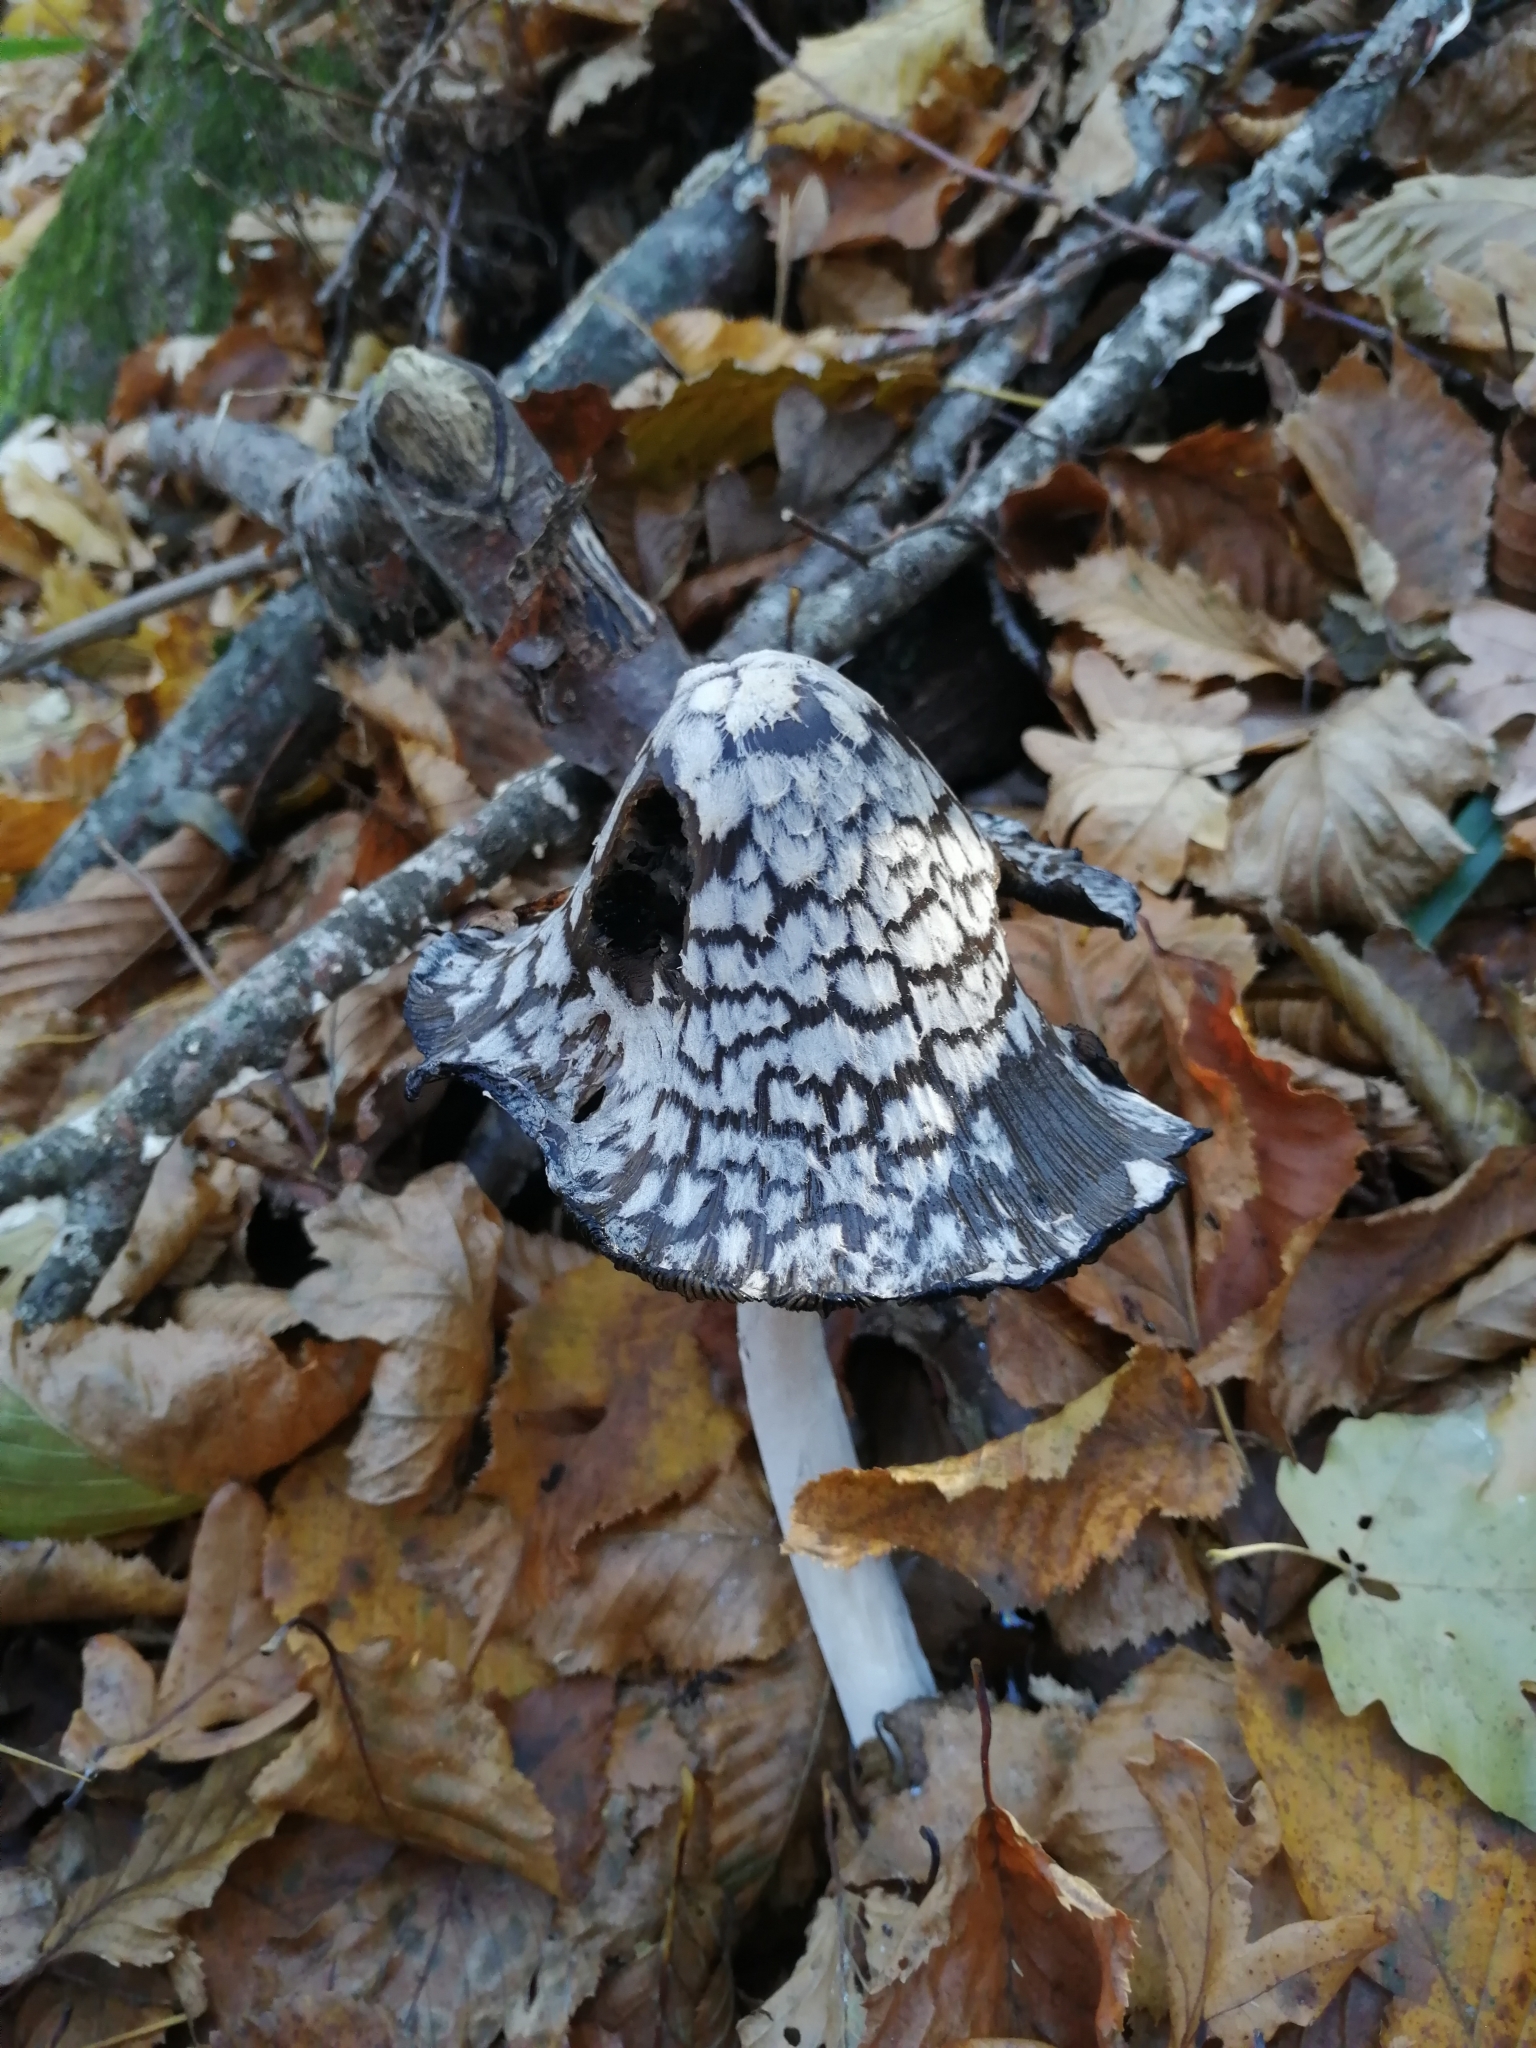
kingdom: Fungi
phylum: Basidiomycota
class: Agaricomycetes
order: Agaricales
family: Psathyrellaceae
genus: Coprinopsis
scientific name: Coprinopsis picacea
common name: Magpie inkcap
